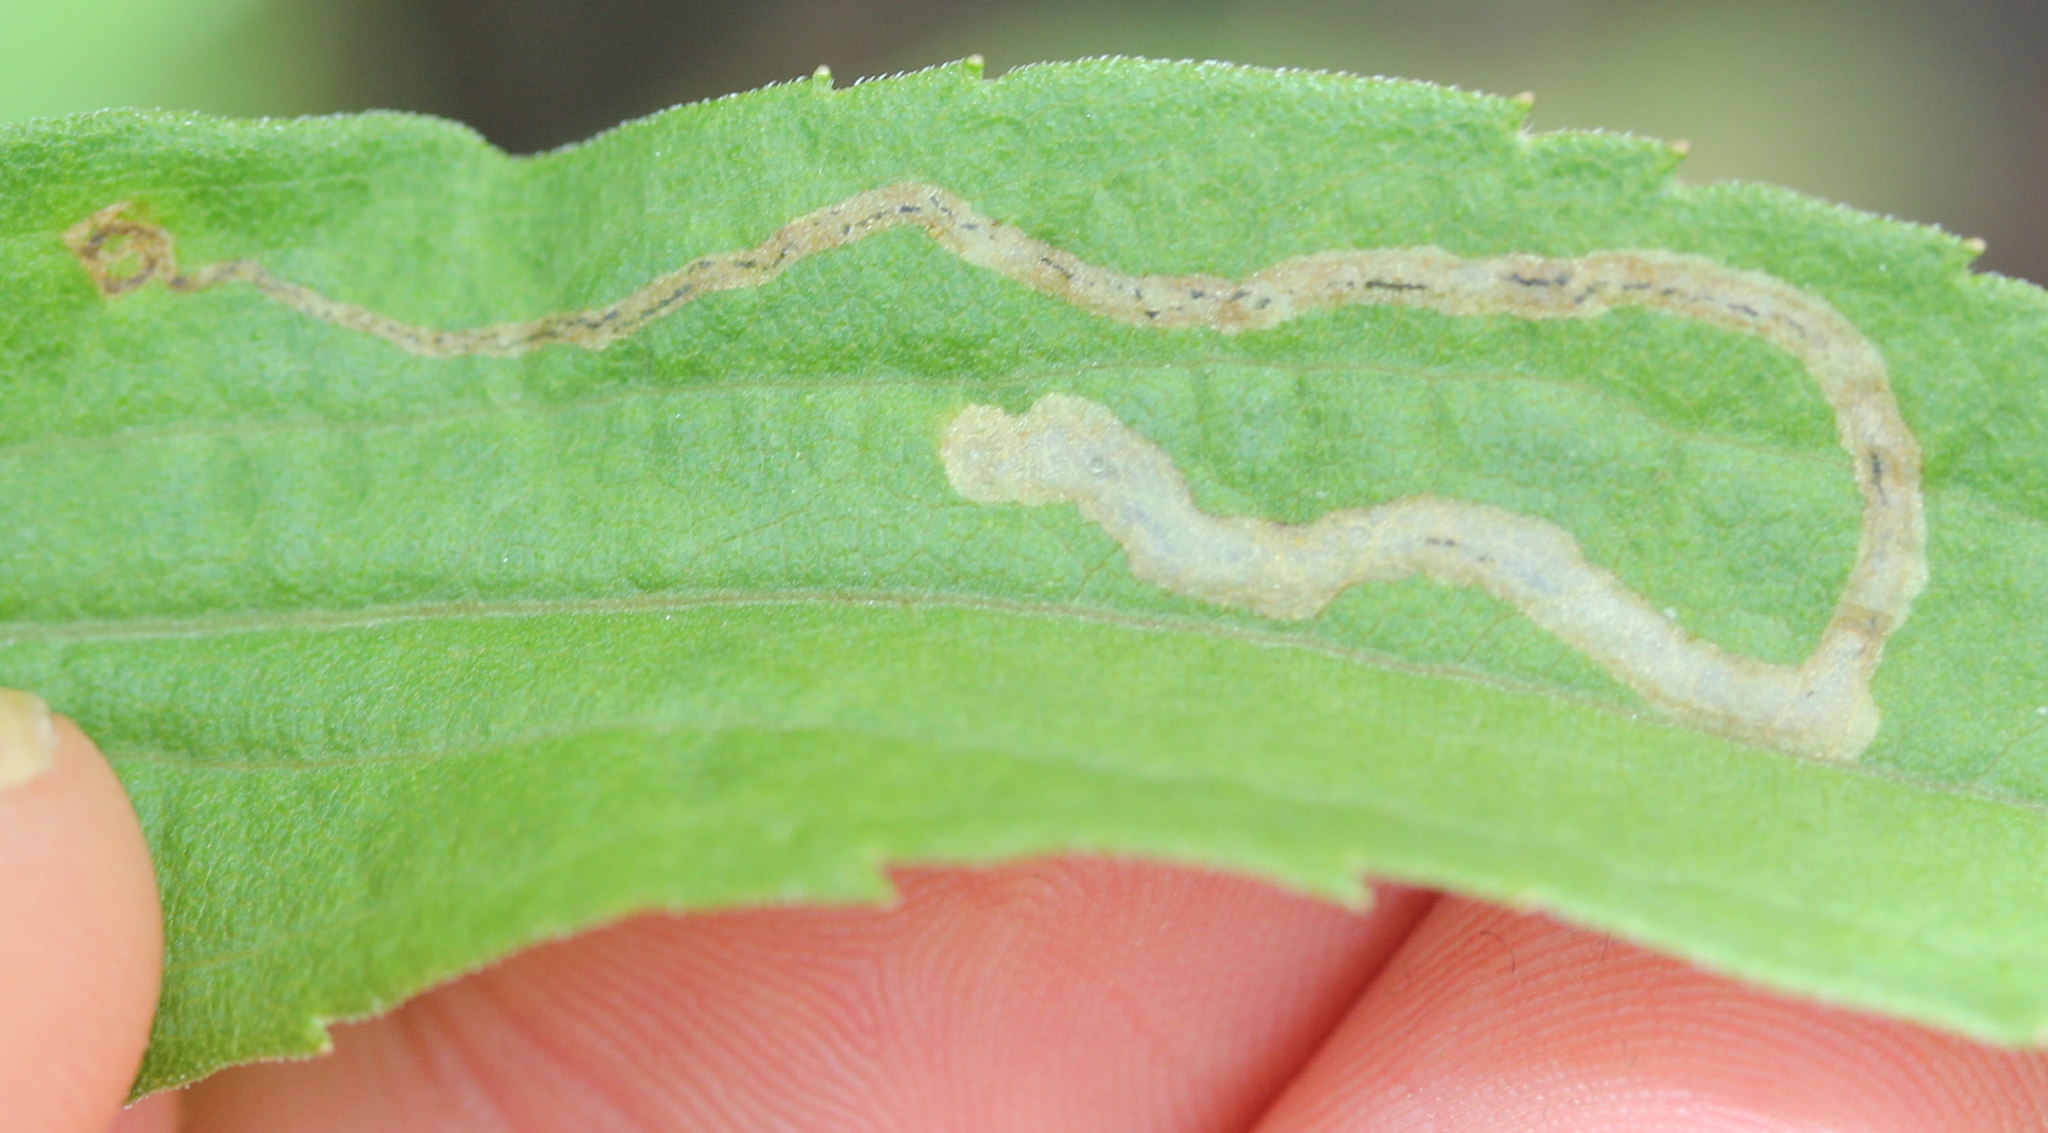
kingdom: Animalia
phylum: Arthropoda
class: Insecta
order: Diptera
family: Agromyzidae
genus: Liriomyza
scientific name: Liriomyza eupatorii
